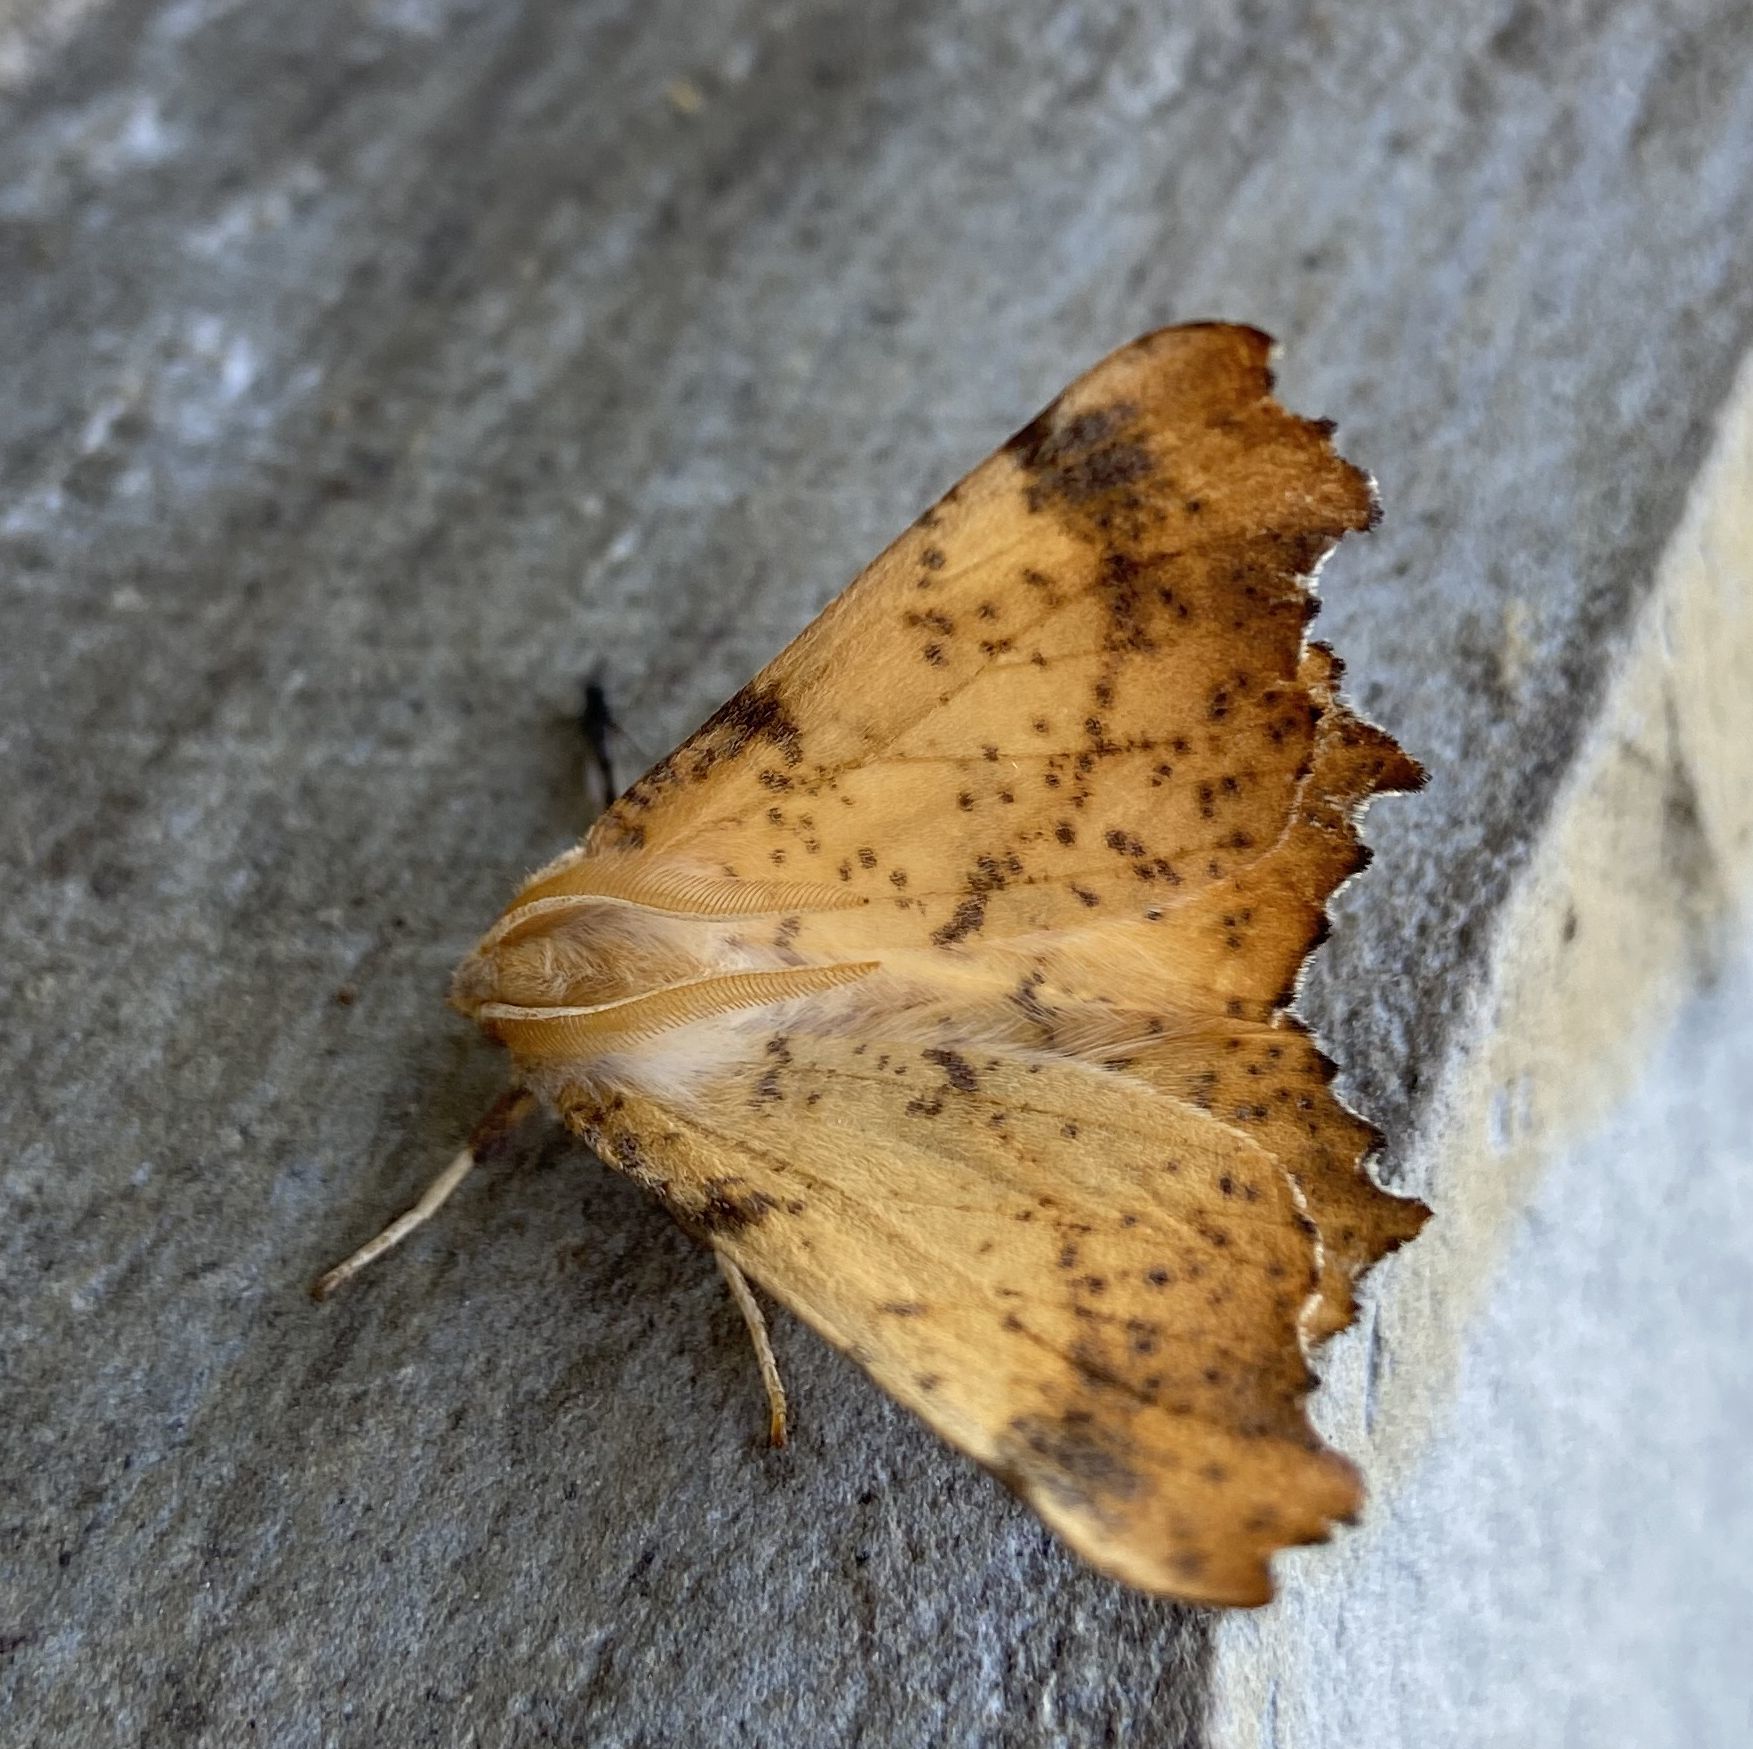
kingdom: Animalia
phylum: Arthropoda
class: Insecta
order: Lepidoptera
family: Geometridae
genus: Ennomos
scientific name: Ennomos magnaria
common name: Maple spanworm
